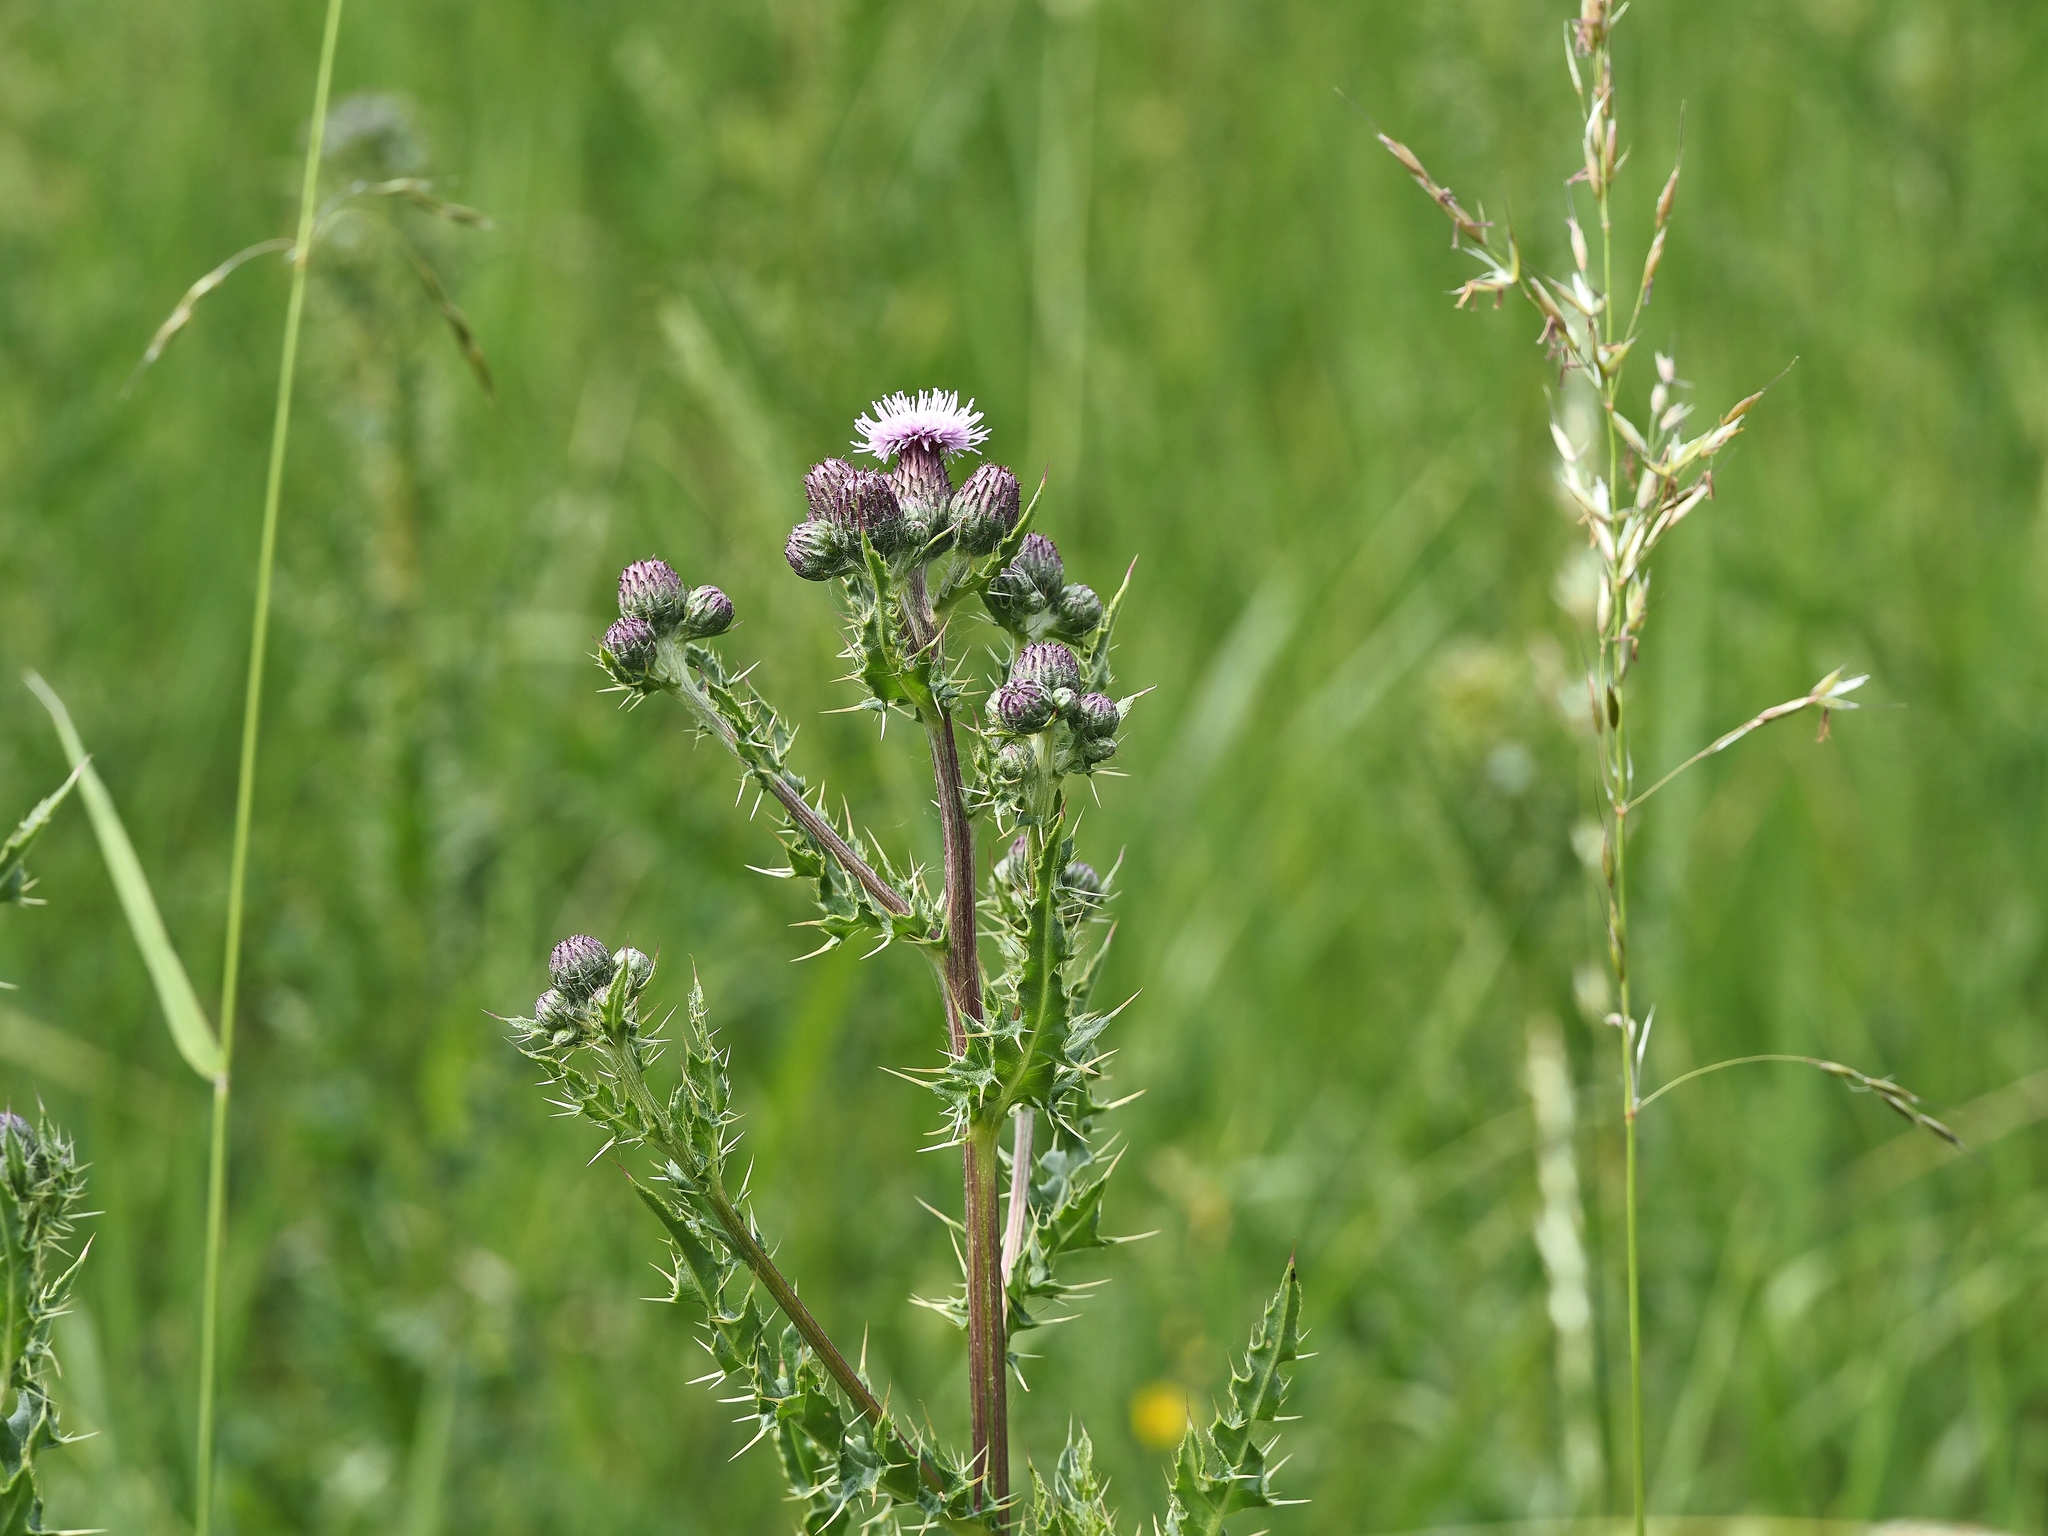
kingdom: Plantae
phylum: Tracheophyta
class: Magnoliopsida
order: Asterales
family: Asteraceae
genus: Cirsium
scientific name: Cirsium arvense
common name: Creeping thistle
